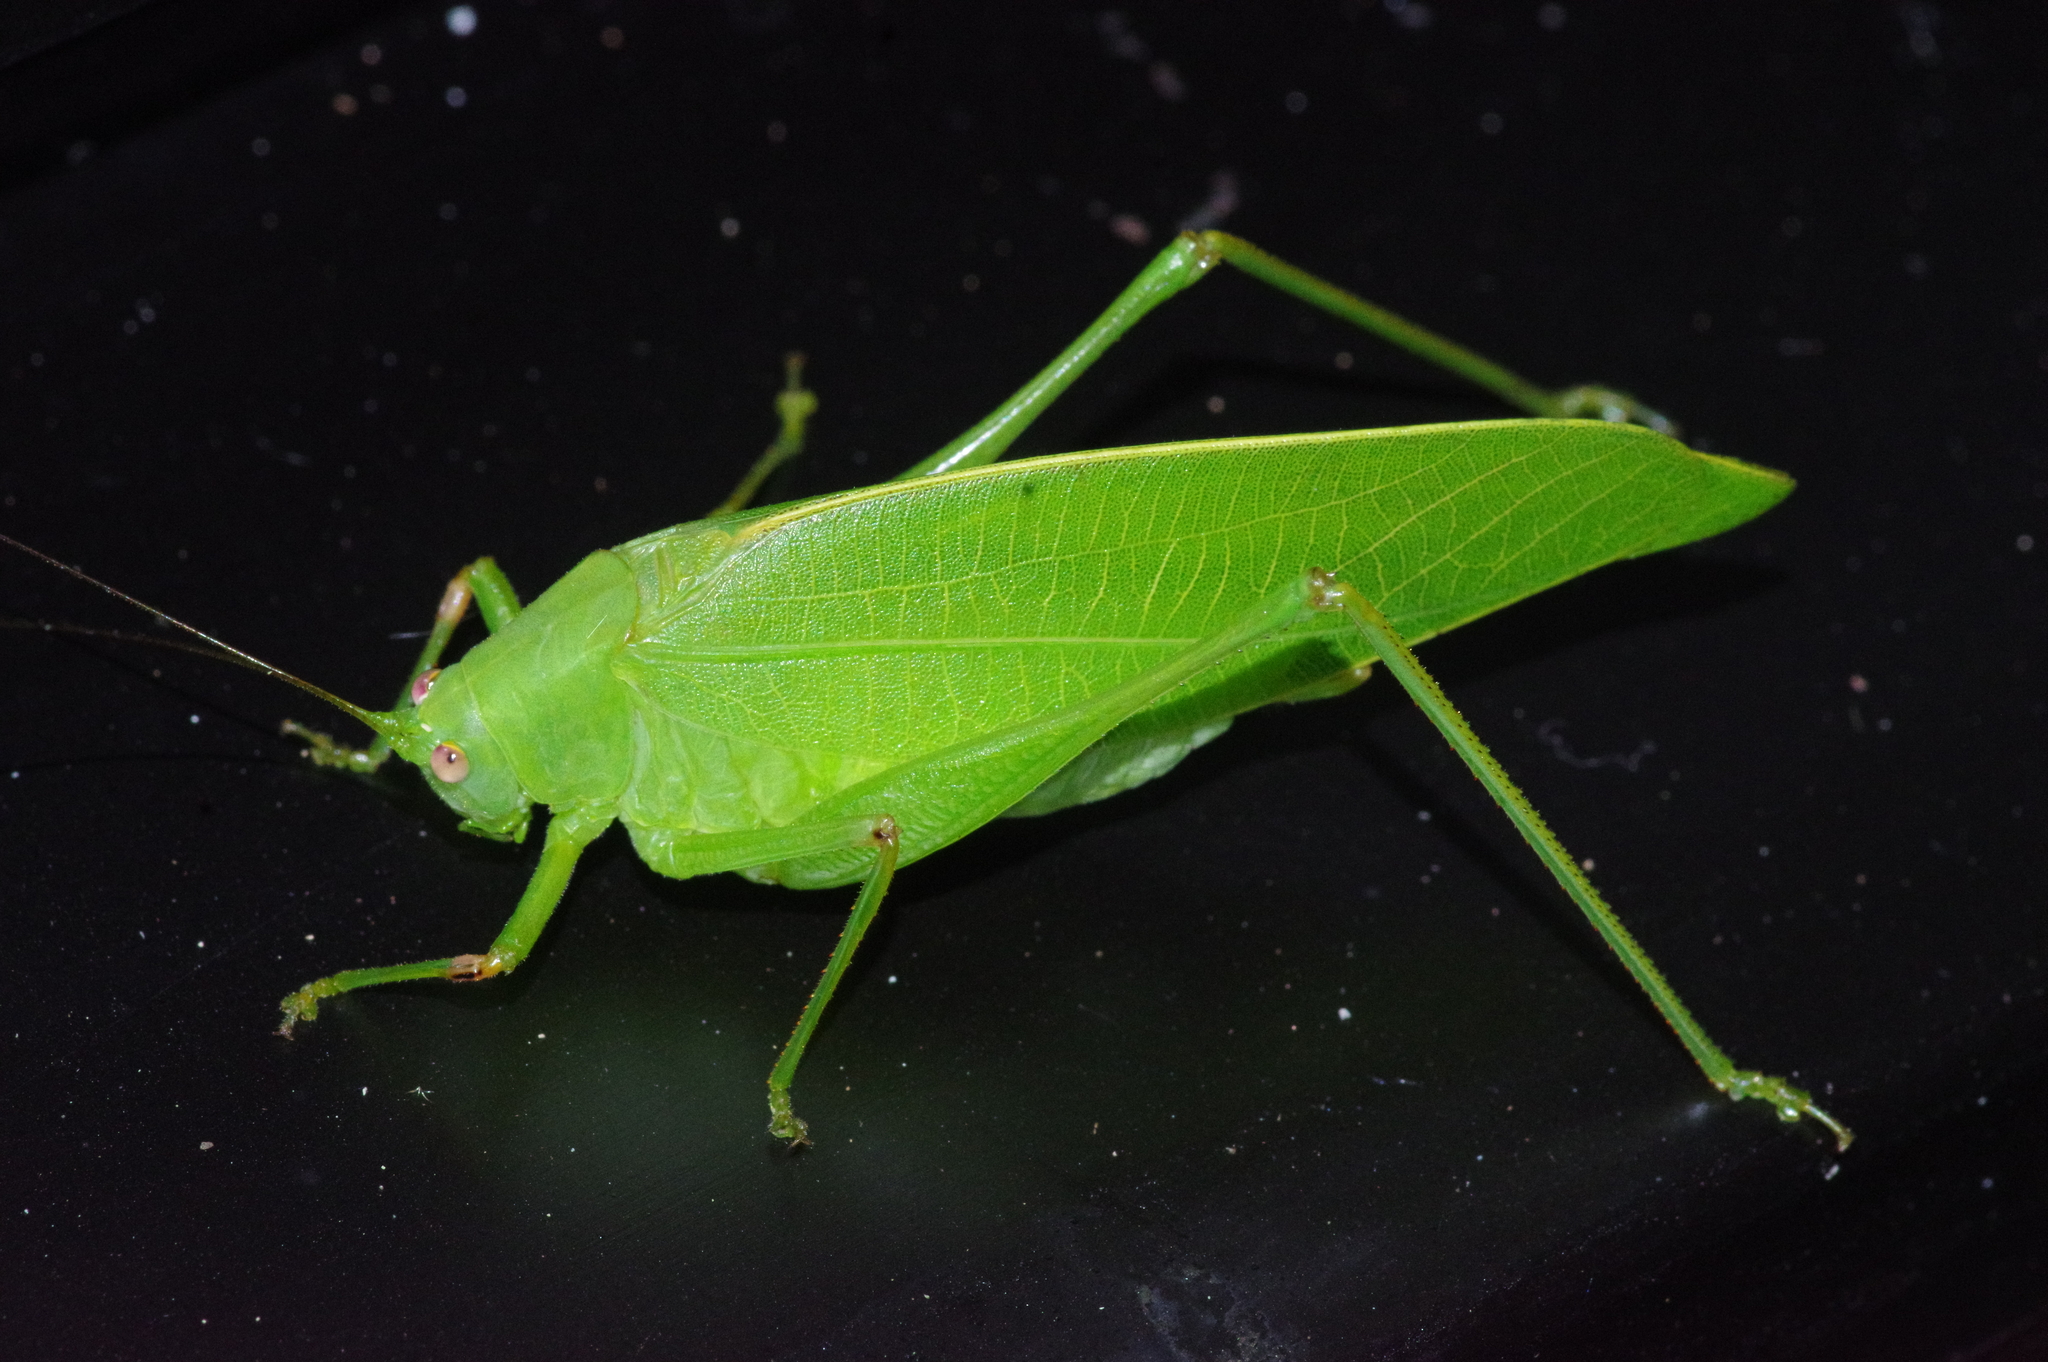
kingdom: Animalia
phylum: Arthropoda
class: Insecta
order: Orthoptera
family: Tettigoniidae
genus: Phaulula
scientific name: Phaulula daitoensis
